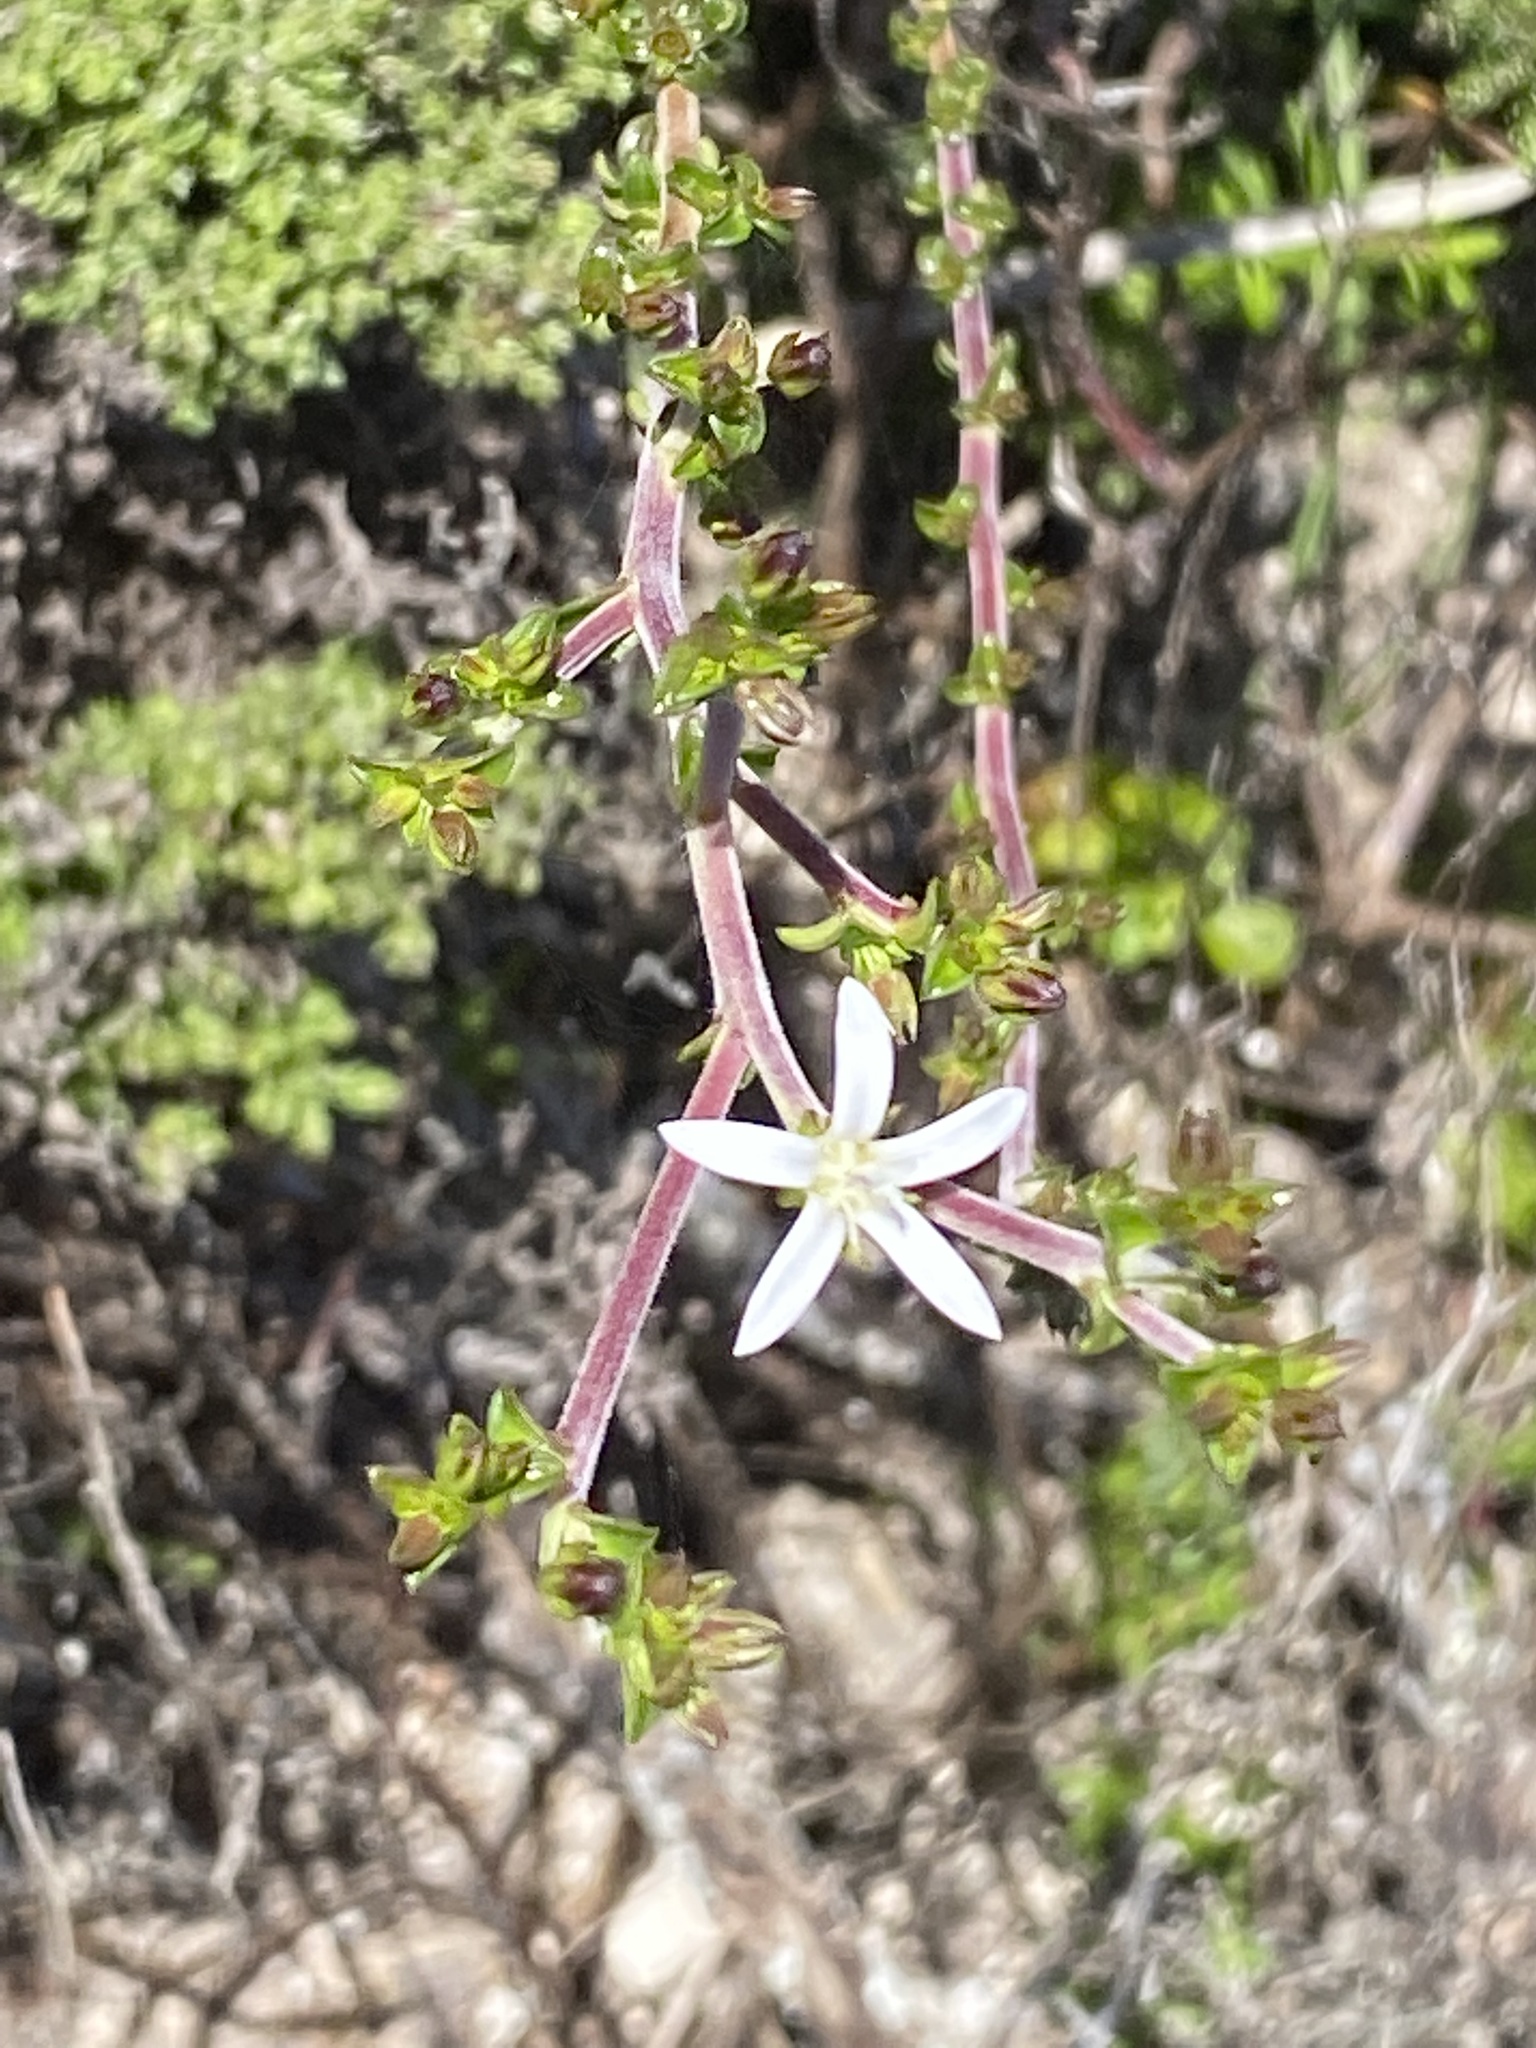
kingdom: Plantae
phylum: Tracheophyta
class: Magnoliopsida
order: Asterales
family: Campanulaceae
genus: Wahlenbergia
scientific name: Wahlenbergia tenella
